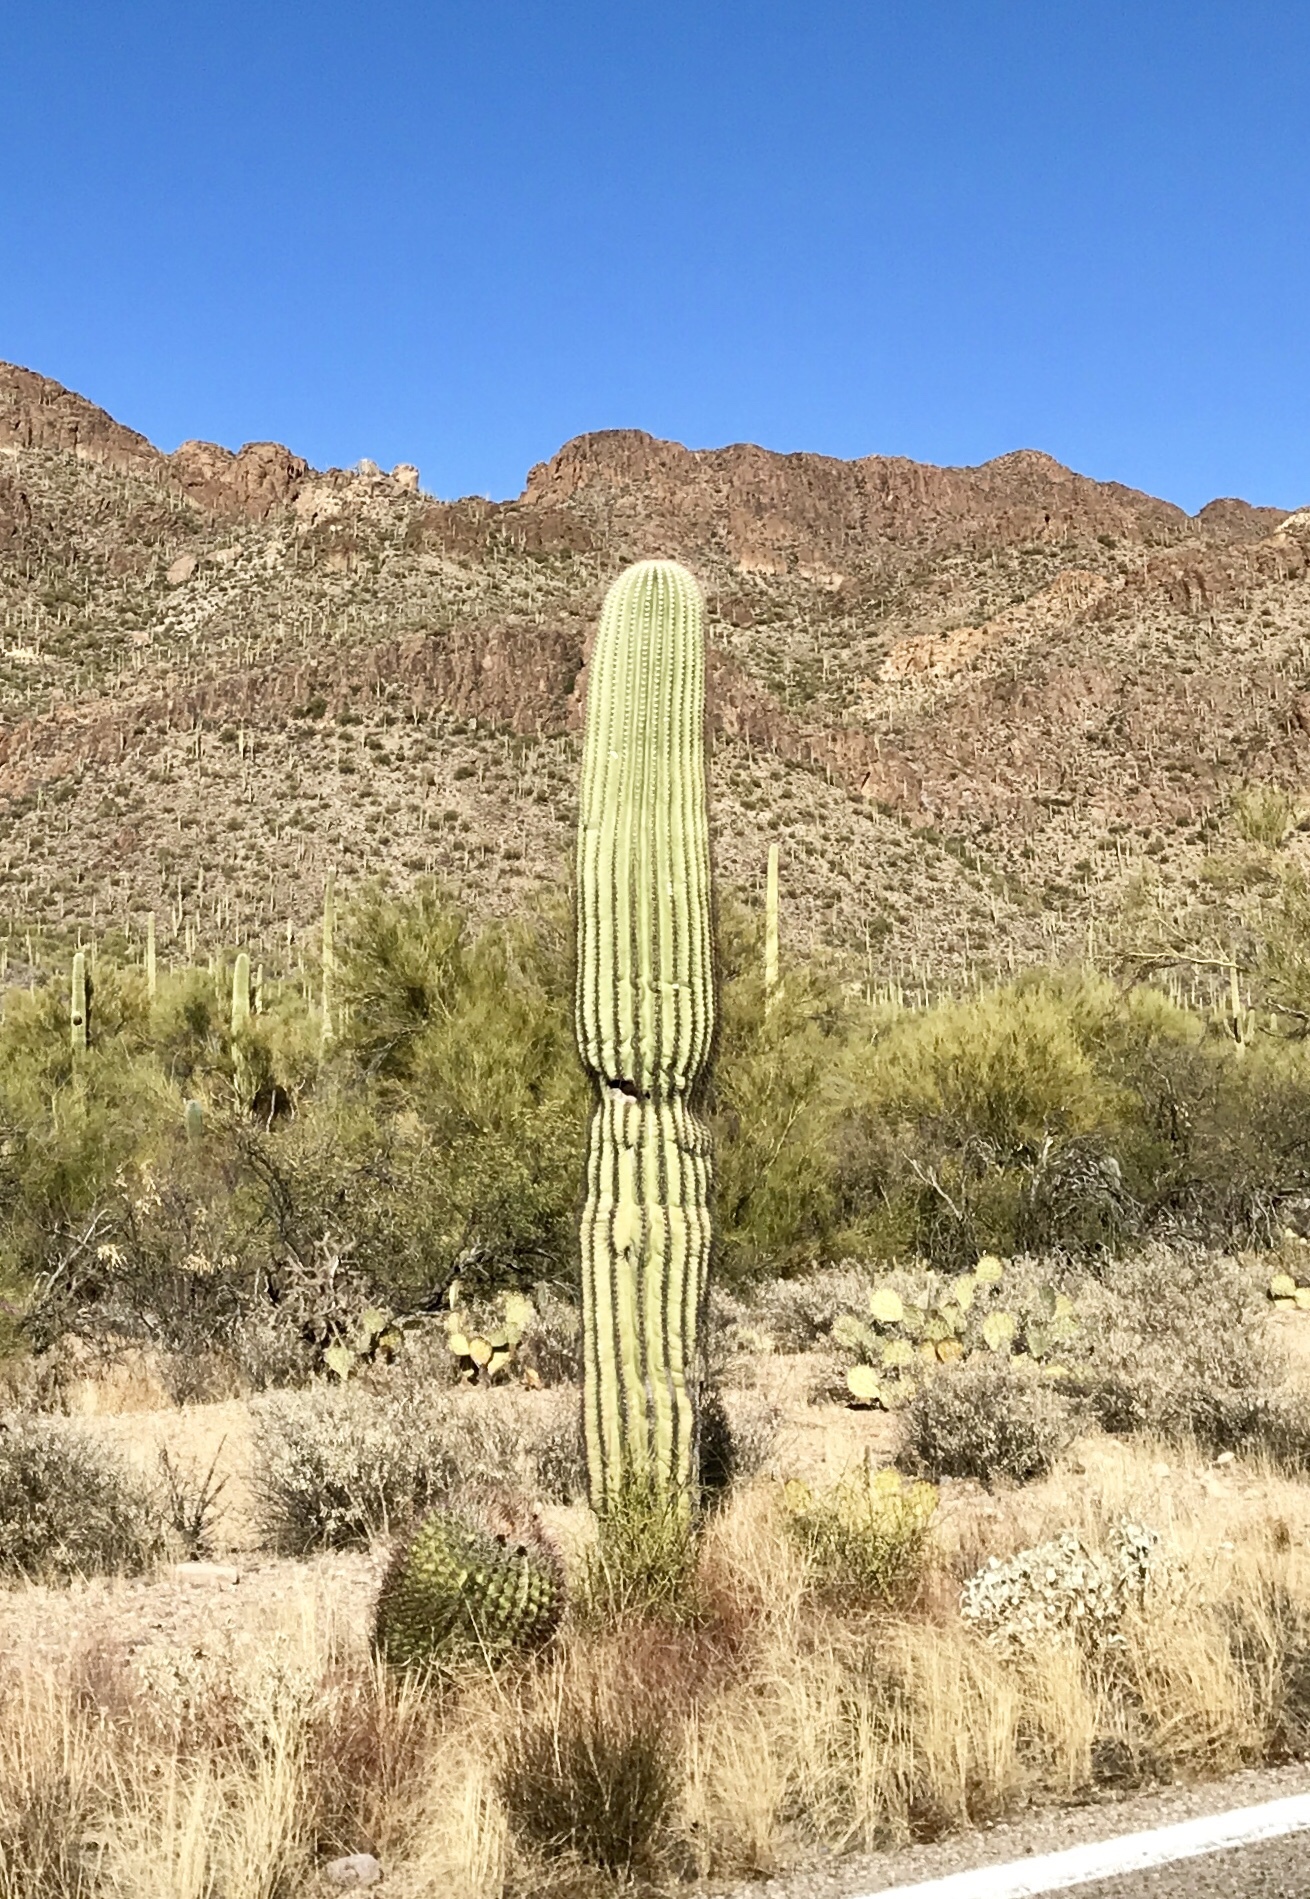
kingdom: Plantae
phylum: Tracheophyta
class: Magnoliopsida
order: Caryophyllales
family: Cactaceae
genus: Carnegiea
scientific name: Carnegiea gigantea
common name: Saguaro
